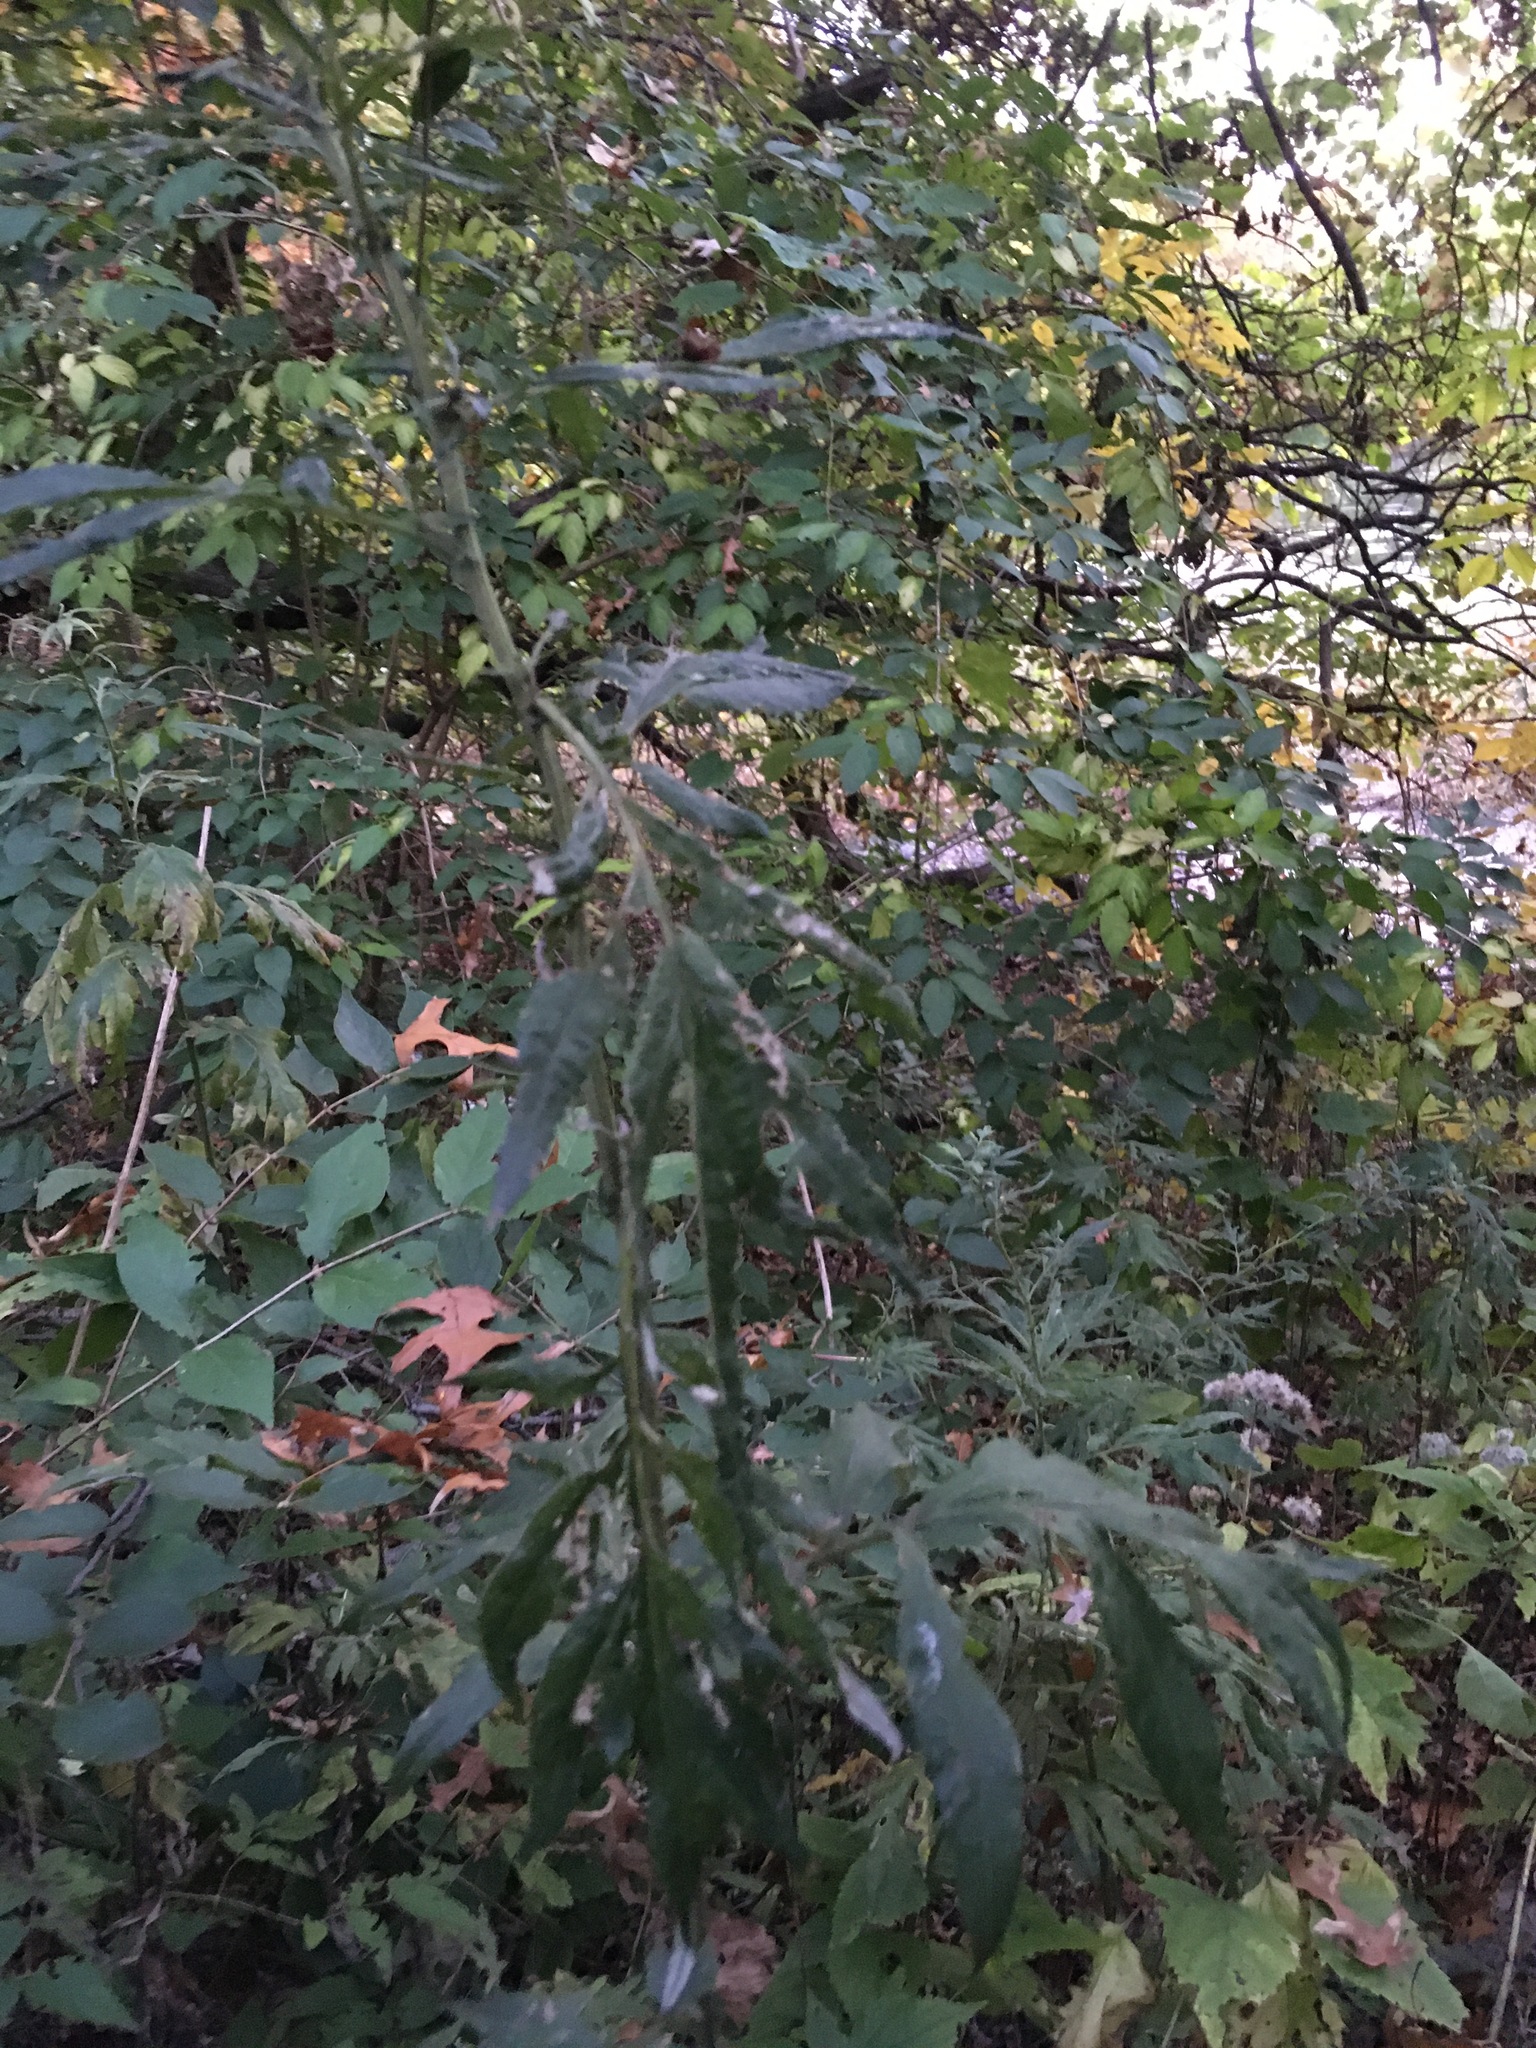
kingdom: Plantae
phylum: Tracheophyta
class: Magnoliopsida
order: Asterales
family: Asteraceae
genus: Artemisia
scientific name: Artemisia vulgaris
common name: Mugwort
